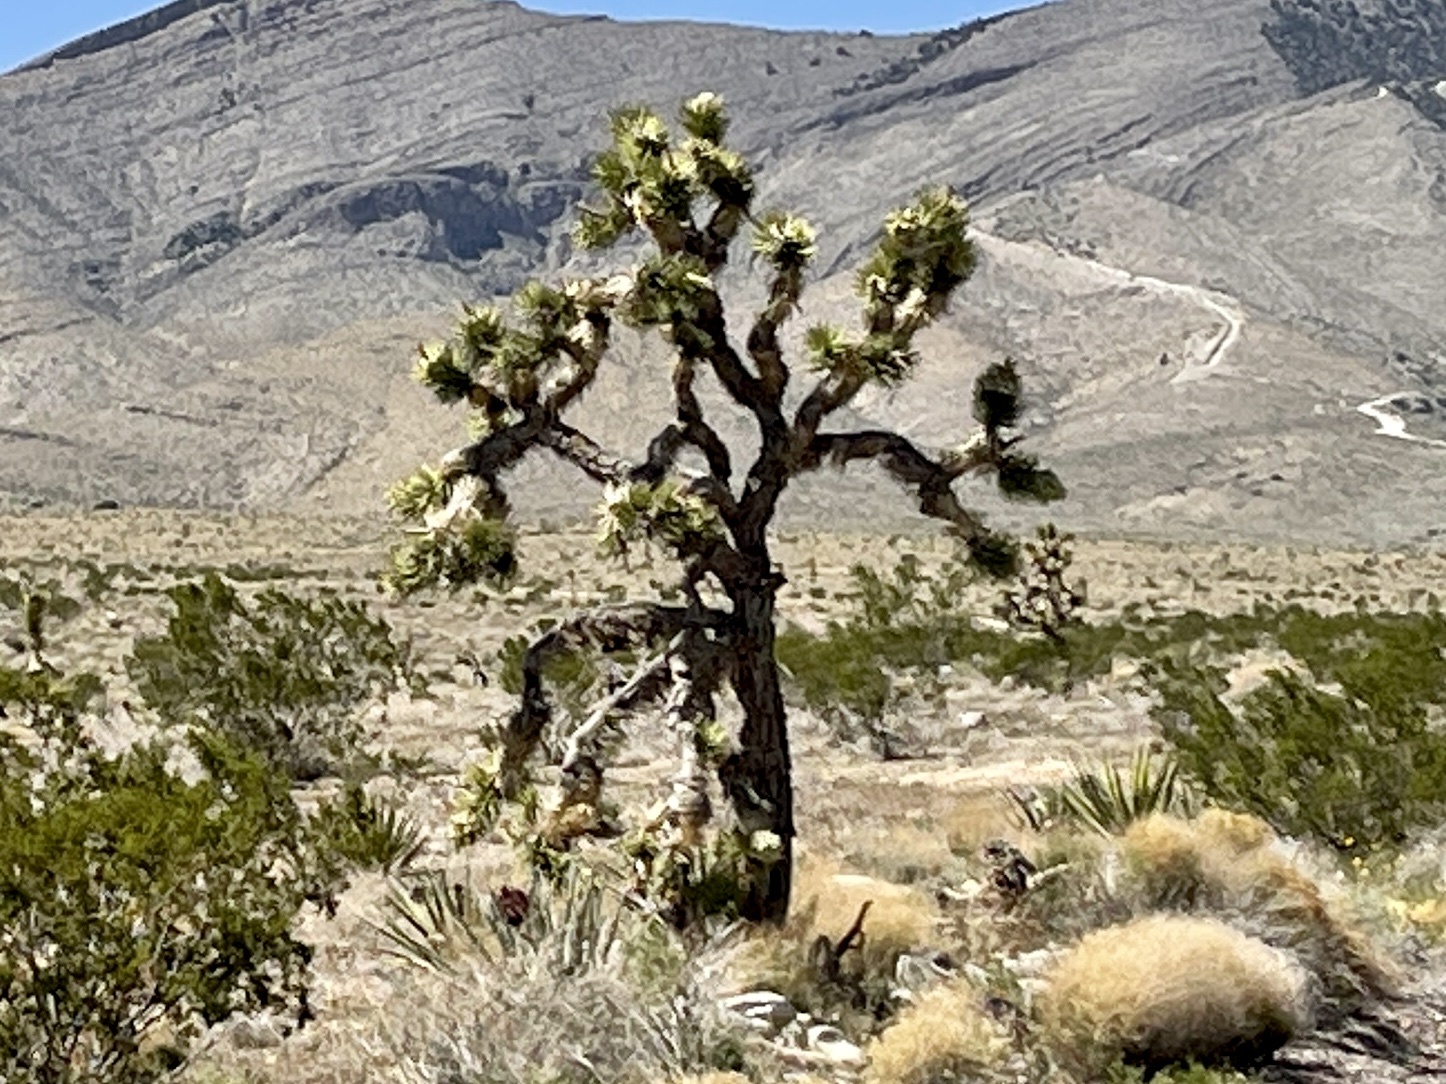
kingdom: Plantae
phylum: Tracheophyta
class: Liliopsida
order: Asparagales
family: Asparagaceae
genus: Yucca
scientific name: Yucca brevifolia
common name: Joshua tree
